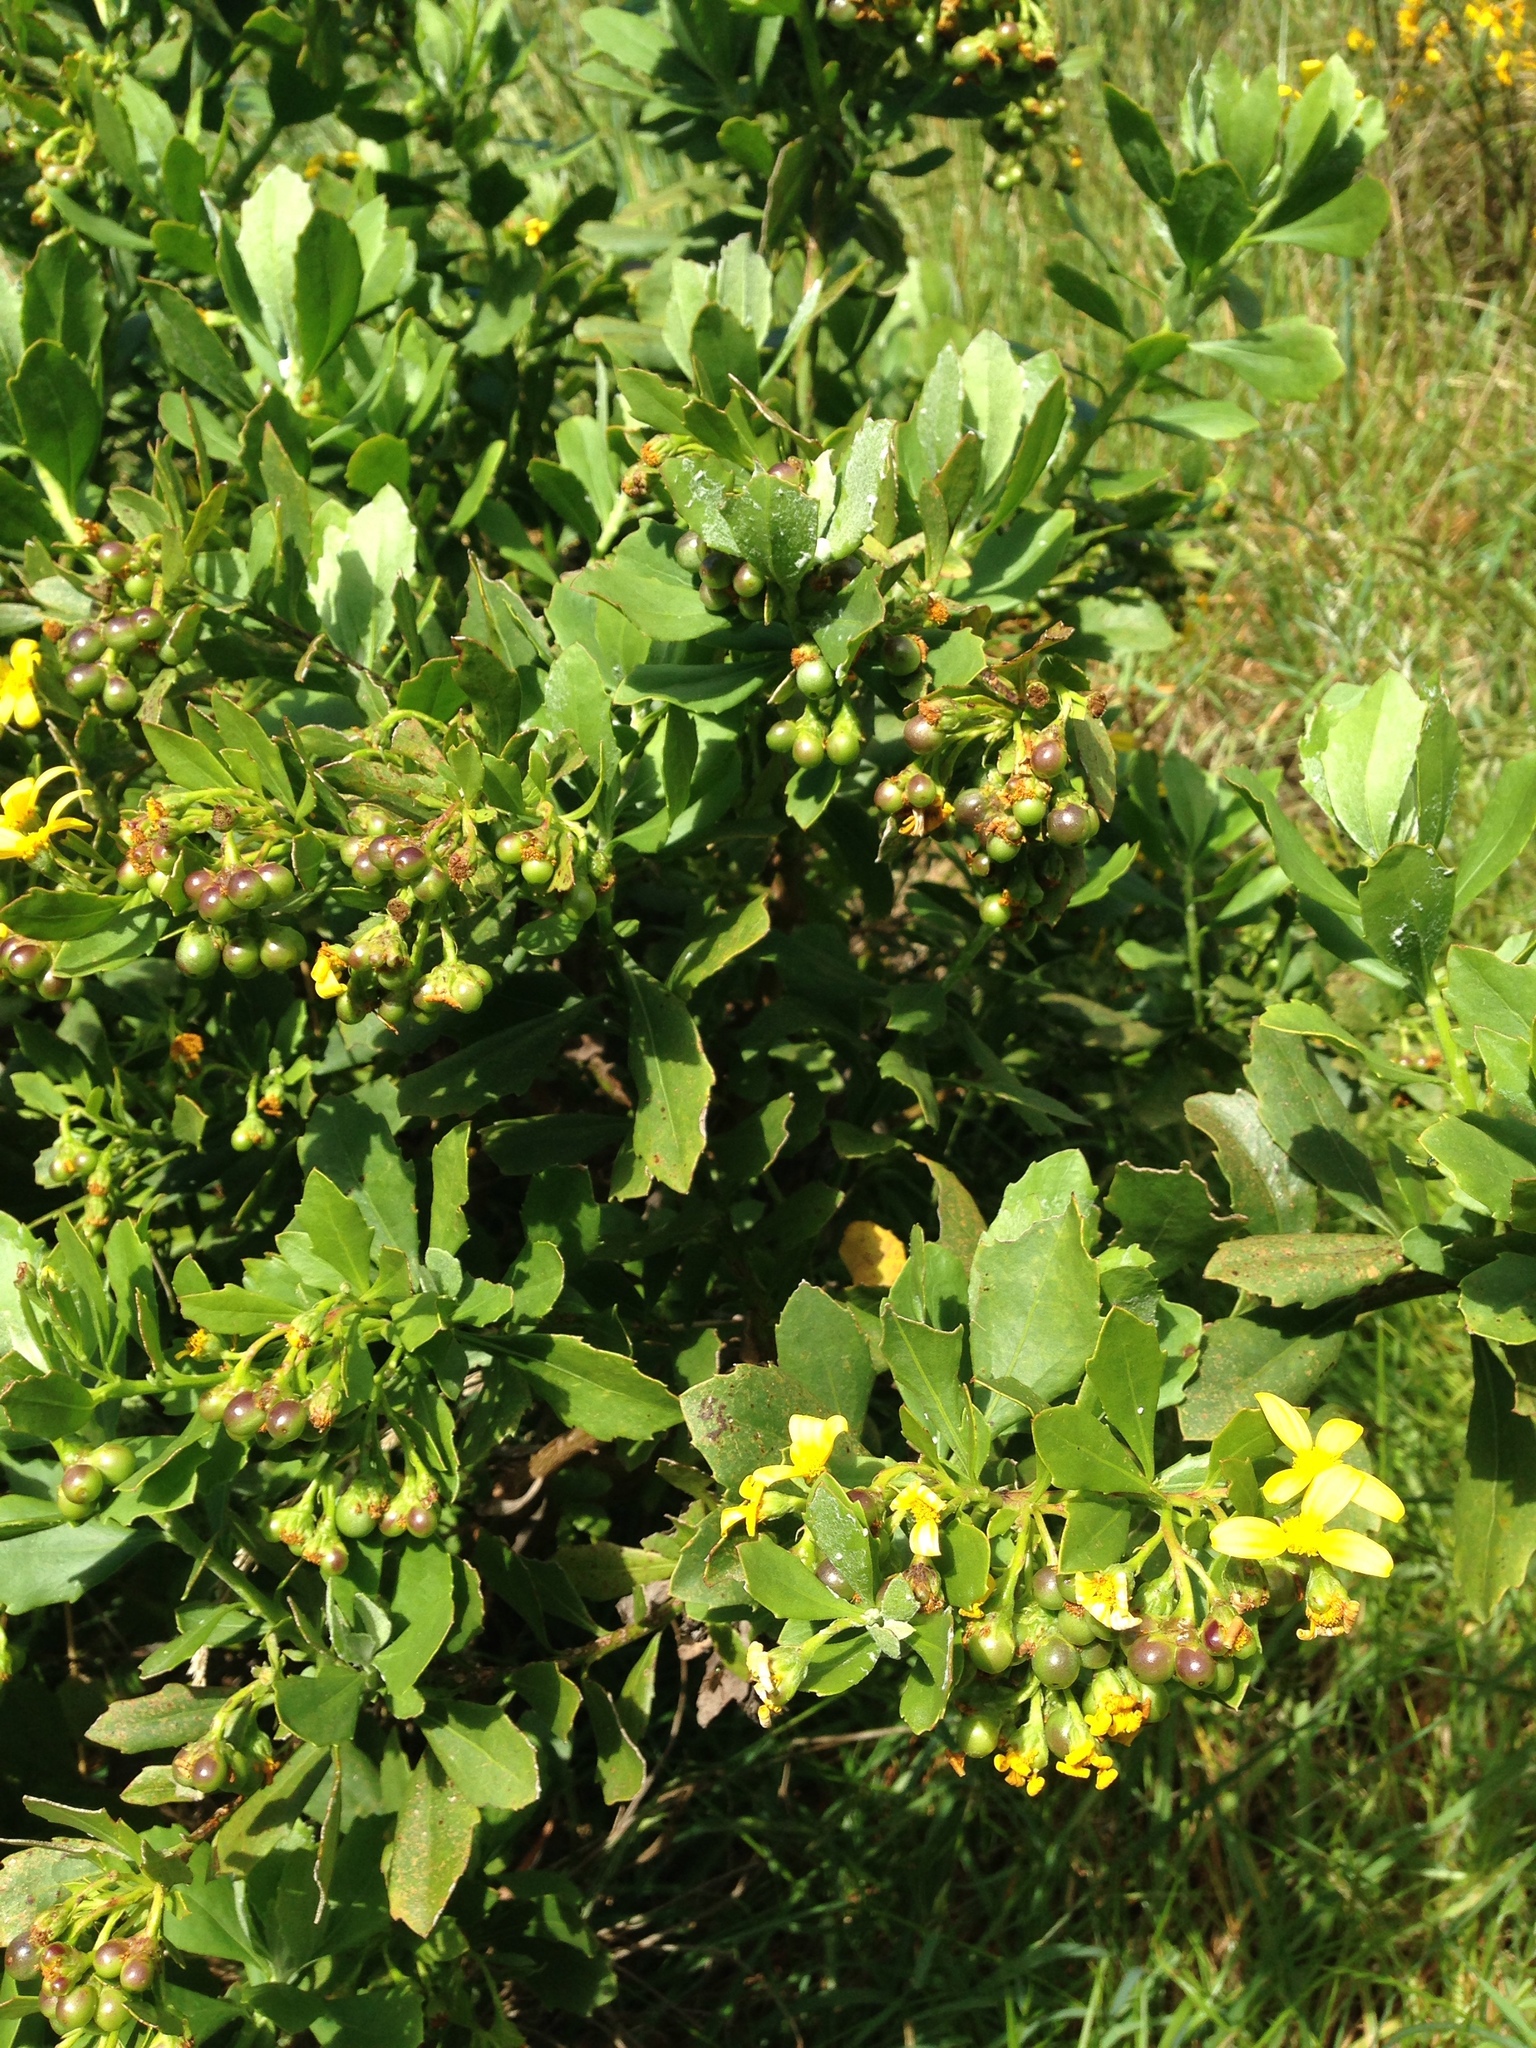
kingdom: Plantae
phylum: Tracheophyta
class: Magnoliopsida
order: Asterales
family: Asteraceae
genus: Osteospermum
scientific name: Osteospermum moniliferum
